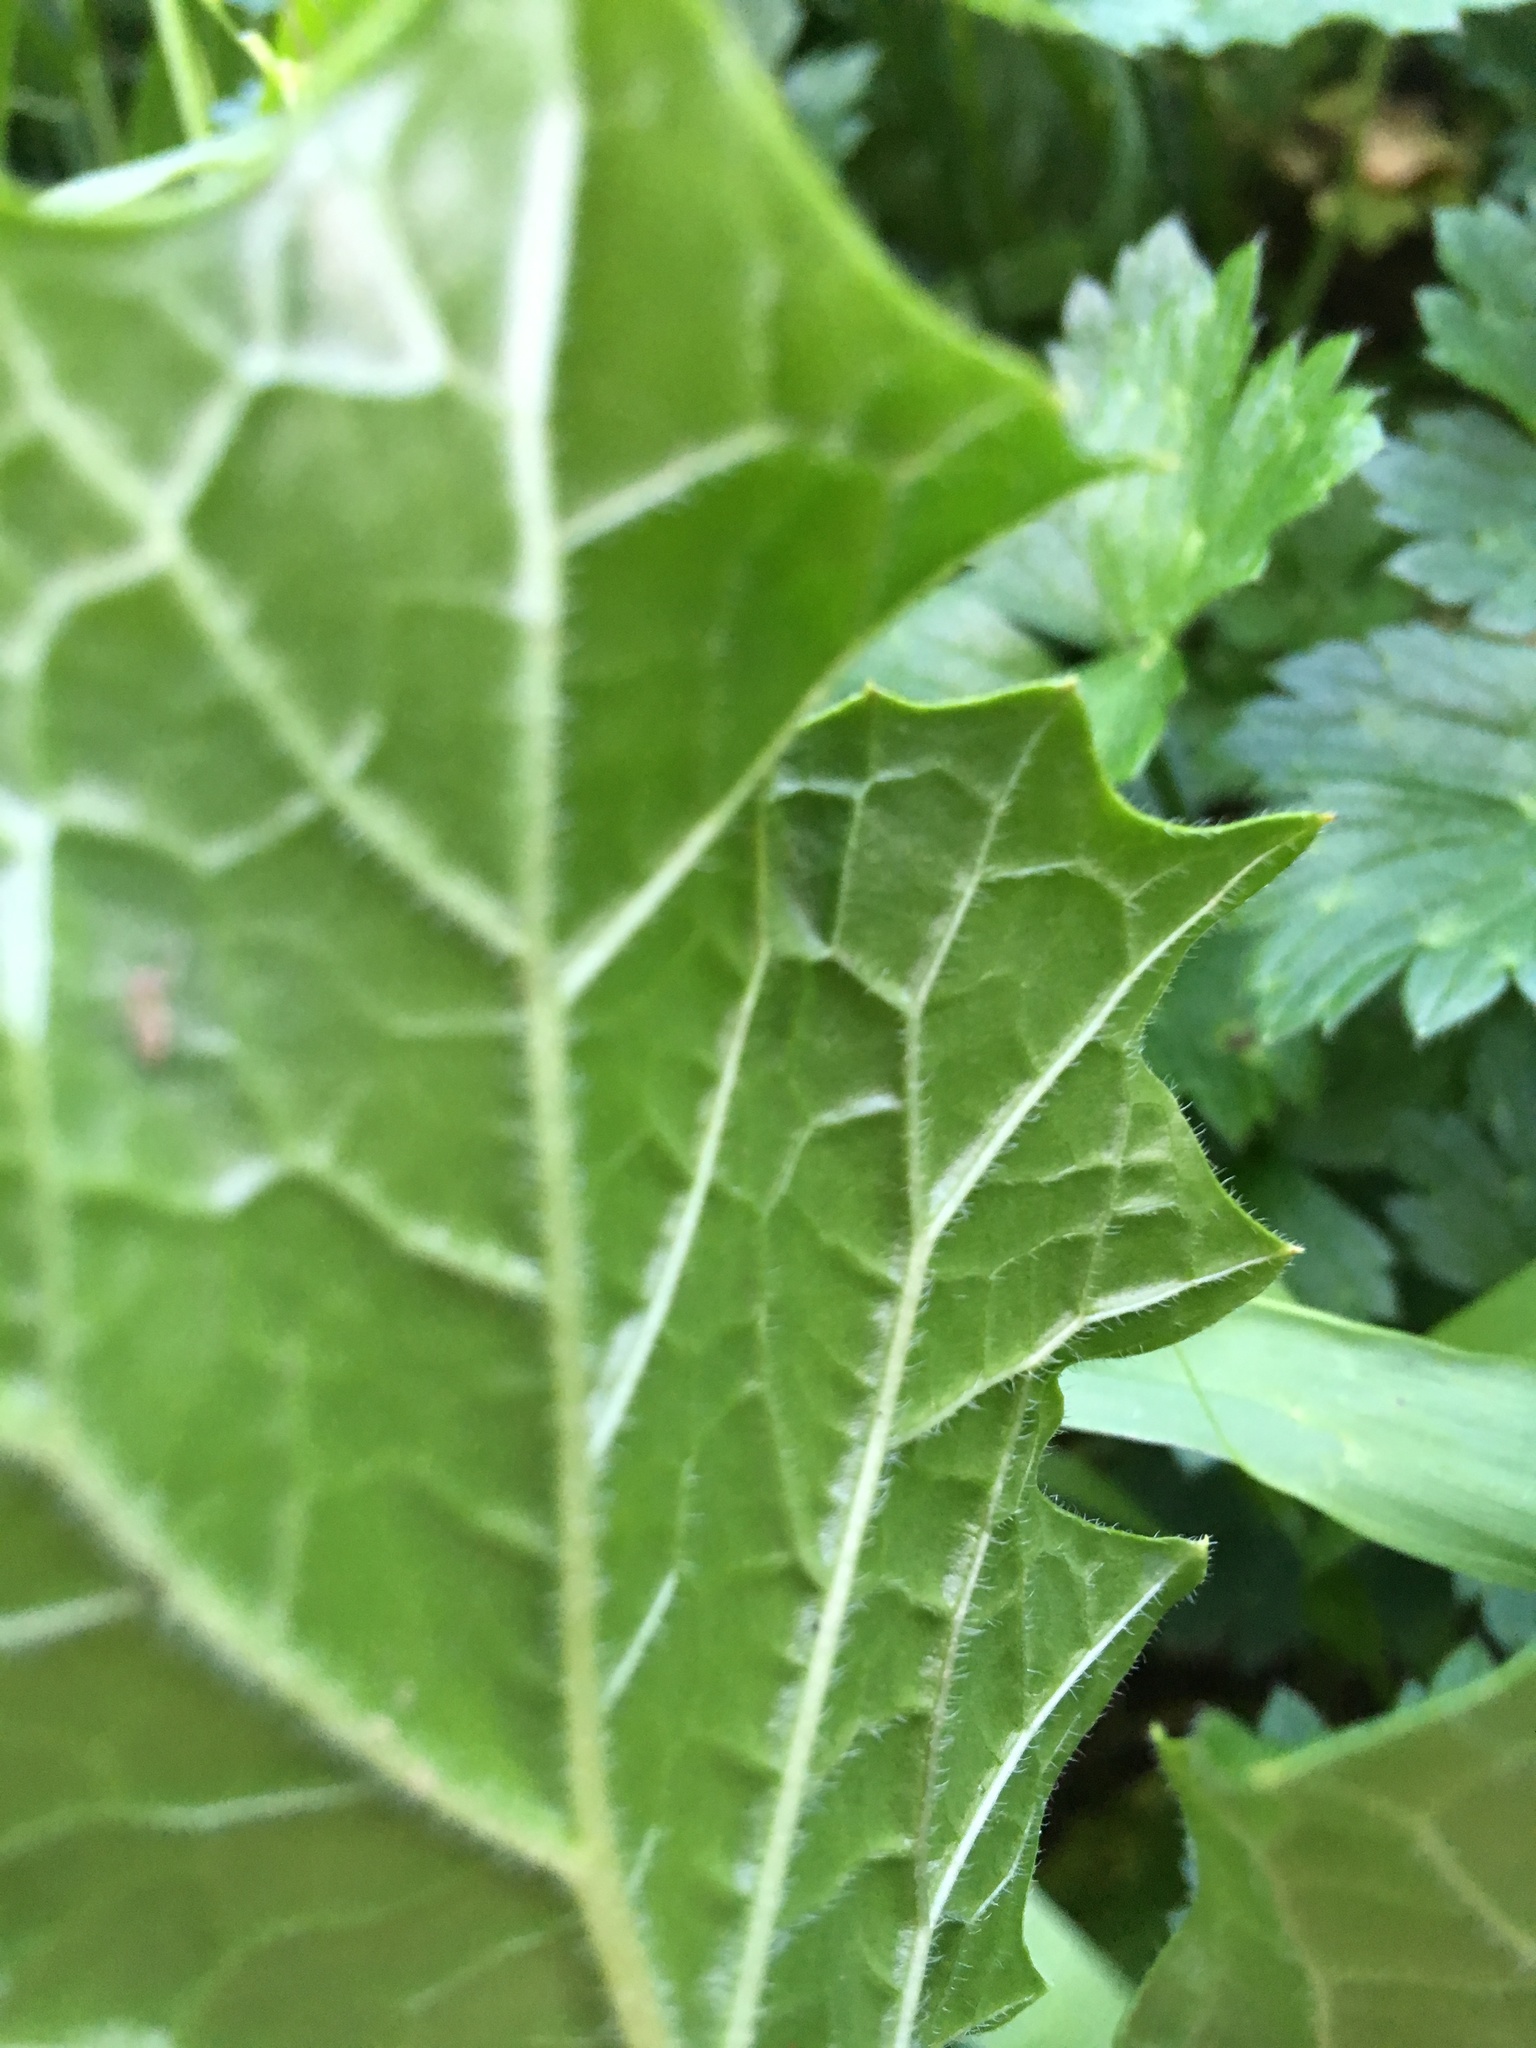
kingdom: Plantae
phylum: Tracheophyta
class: Magnoliopsida
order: Lamiales
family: Acanthaceae
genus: Acanthus
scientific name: Acanthus mollis
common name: Bear's-breech
